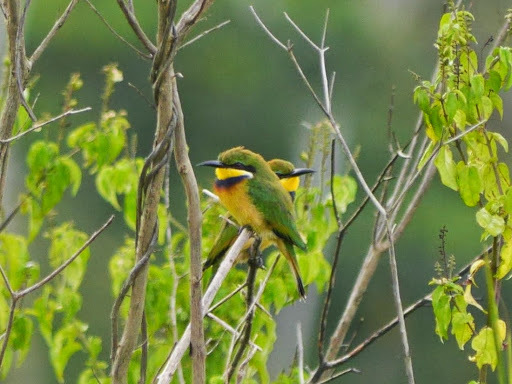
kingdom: Animalia
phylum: Chordata
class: Aves
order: Coraciiformes
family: Meropidae
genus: Merops
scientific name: Merops variegatus
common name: Blue-breasted bee-eater
